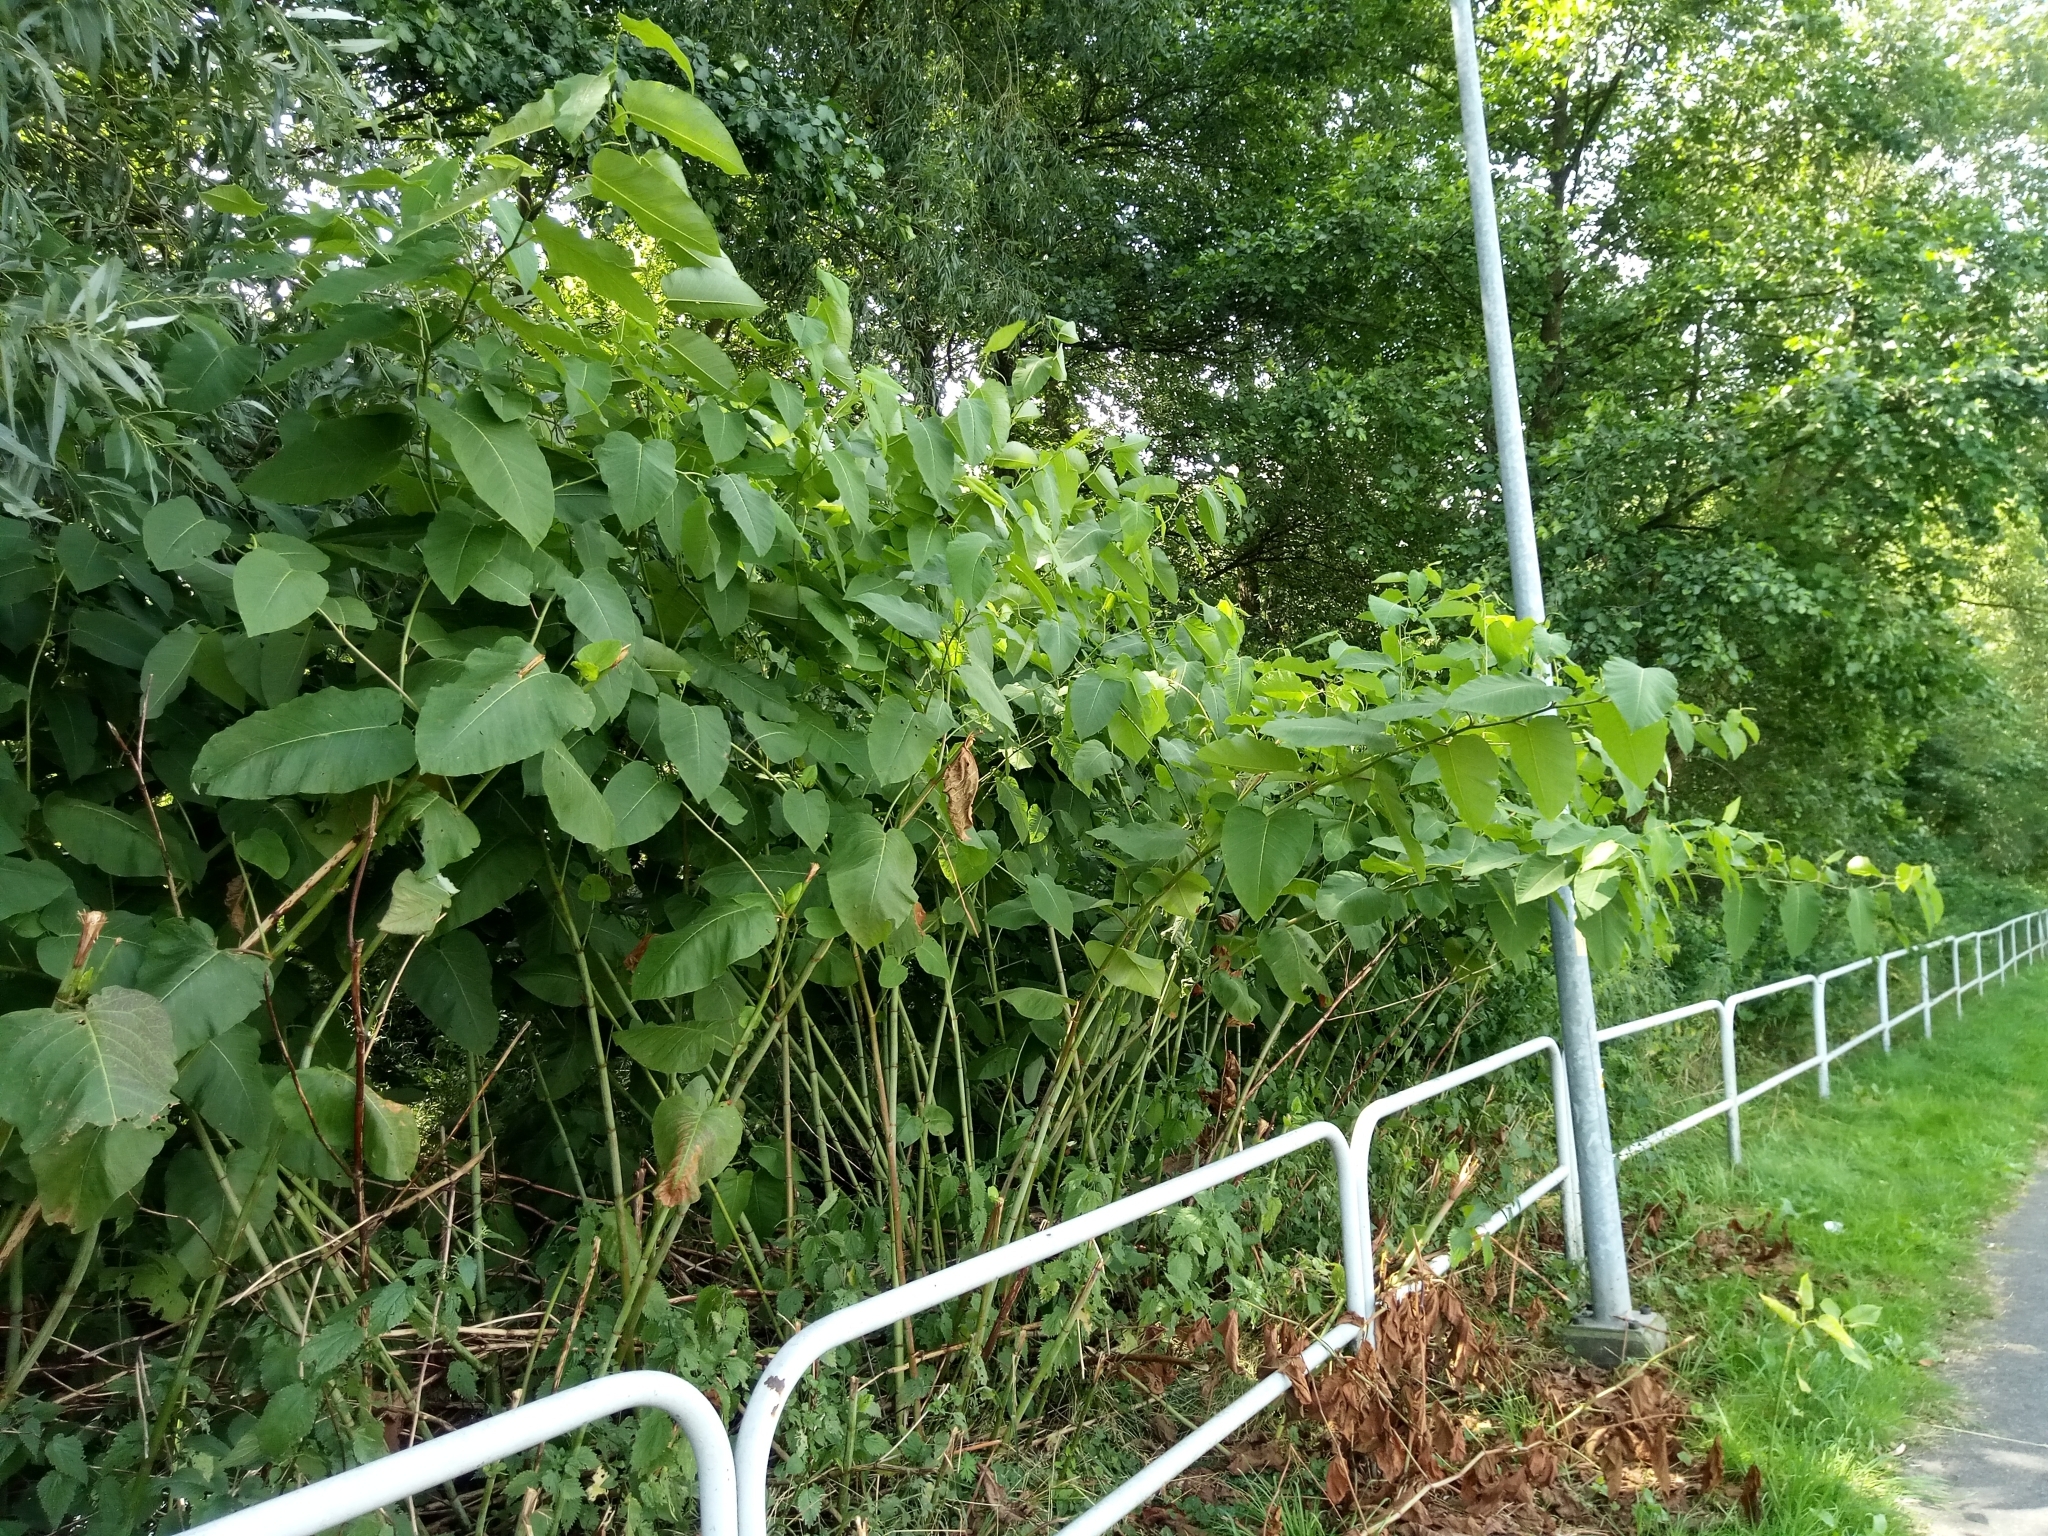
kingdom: Plantae
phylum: Tracheophyta
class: Magnoliopsida
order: Caryophyllales
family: Polygonaceae
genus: Reynoutria
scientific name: Reynoutria sachalinensis
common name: Giant knotweed
